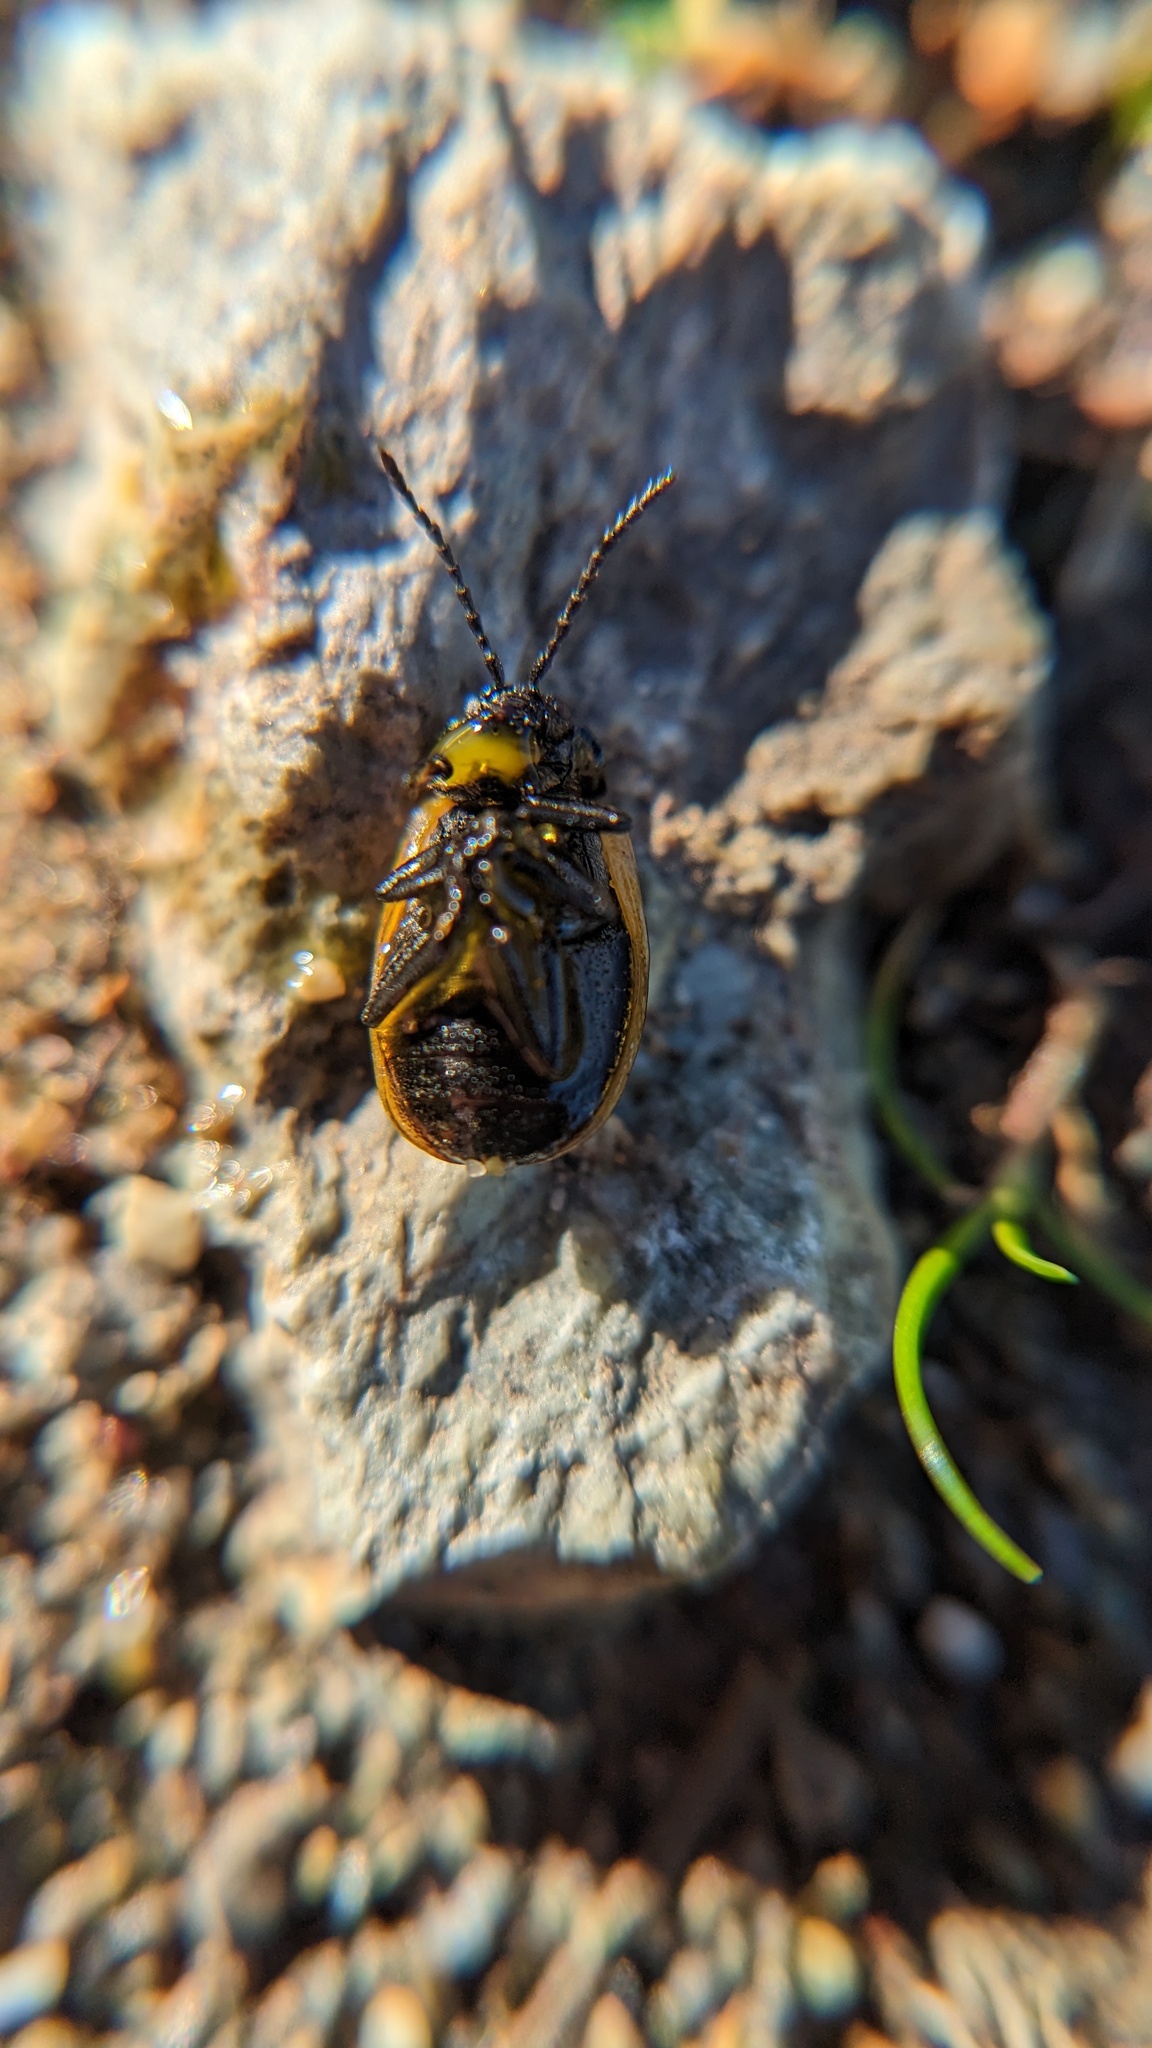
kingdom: Animalia
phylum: Arthropoda
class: Insecta
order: Coleoptera
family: Chrysomelidae
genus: Galeruca
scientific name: Galeruca rudis
